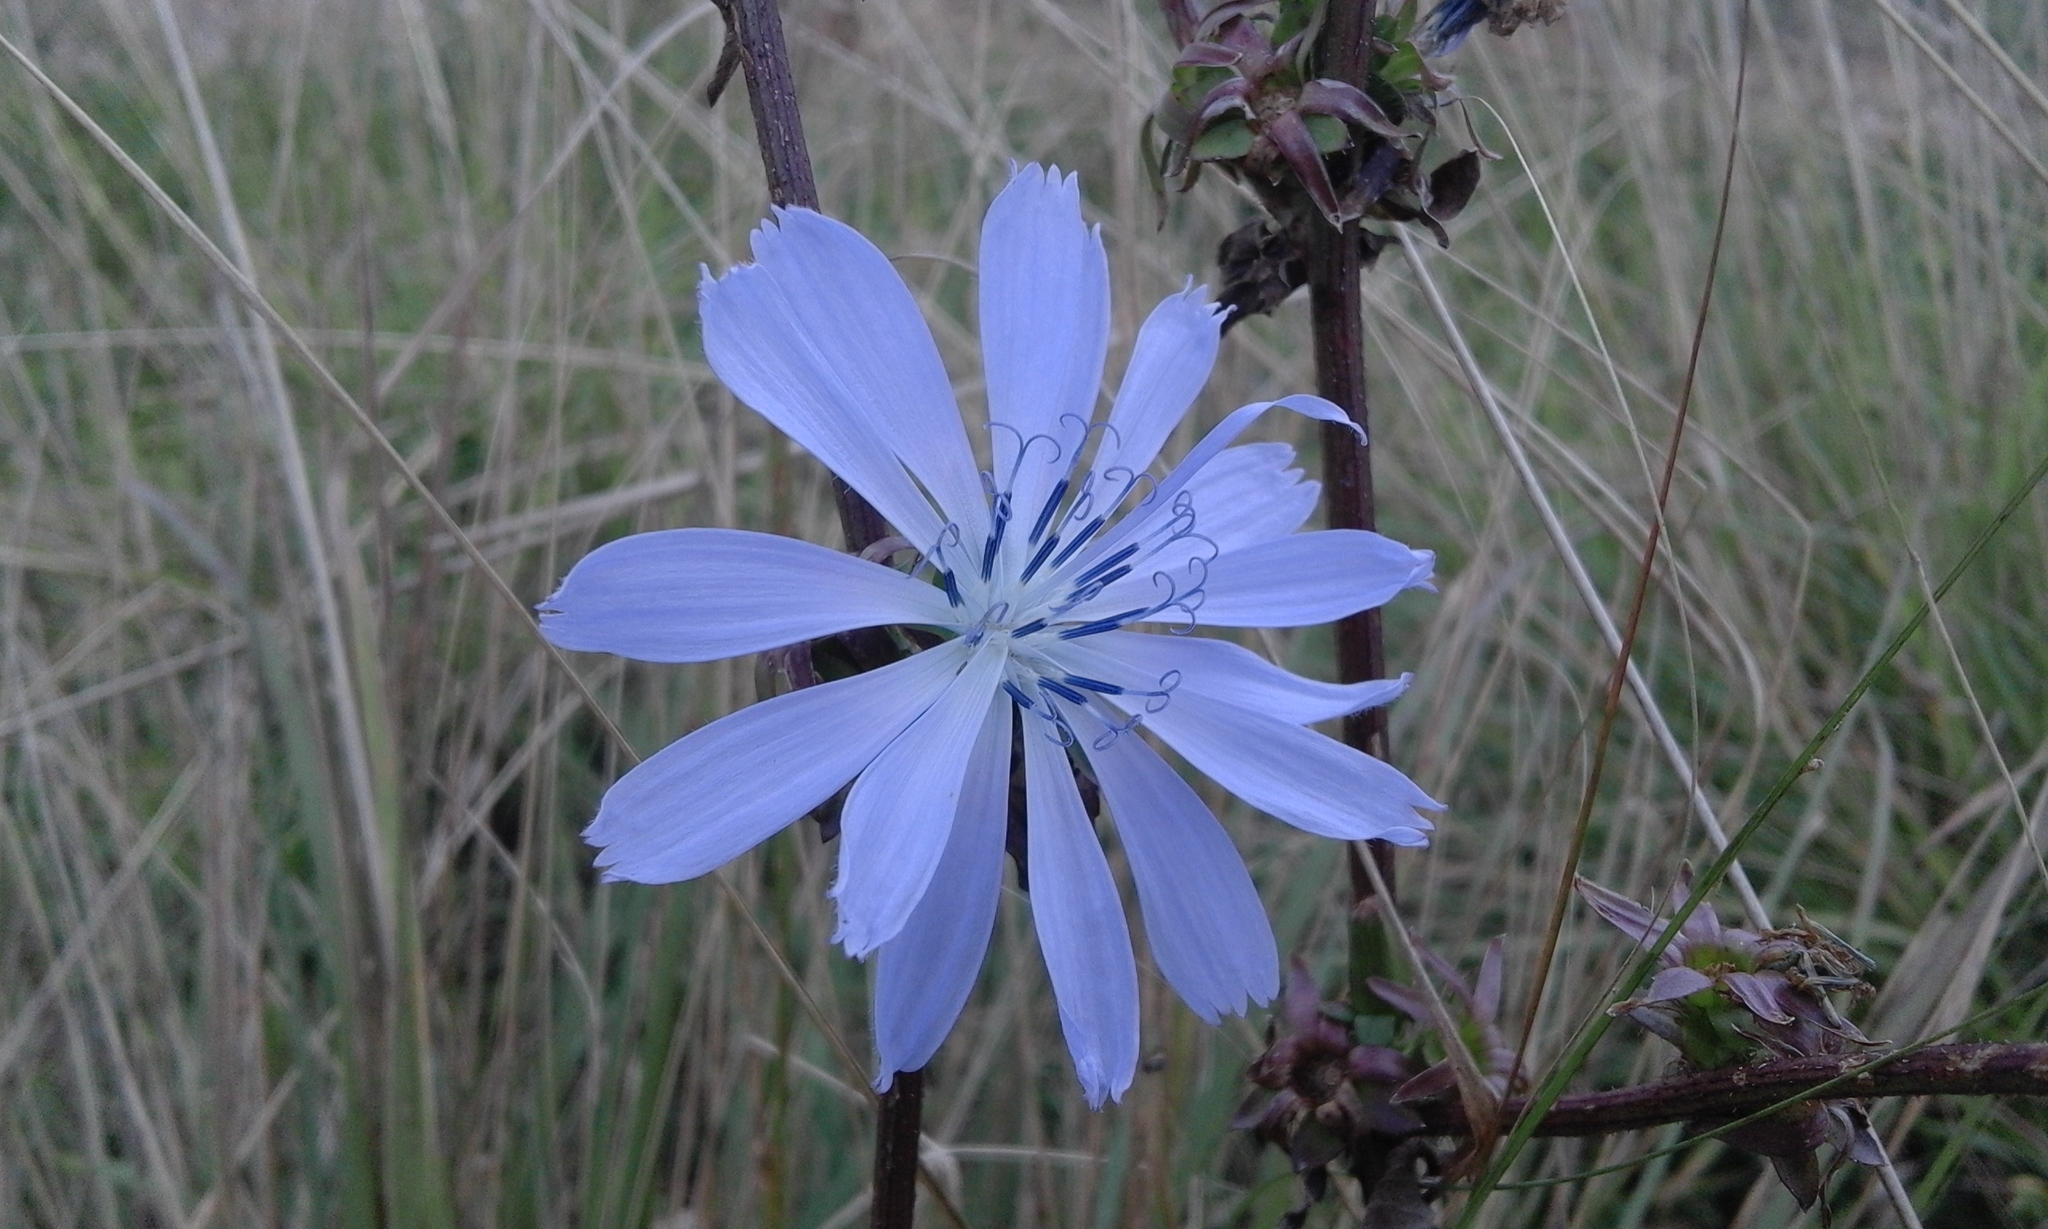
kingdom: Plantae
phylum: Tracheophyta
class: Magnoliopsida
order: Asterales
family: Asteraceae
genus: Cichorium
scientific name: Cichorium intybus
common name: Chicory
